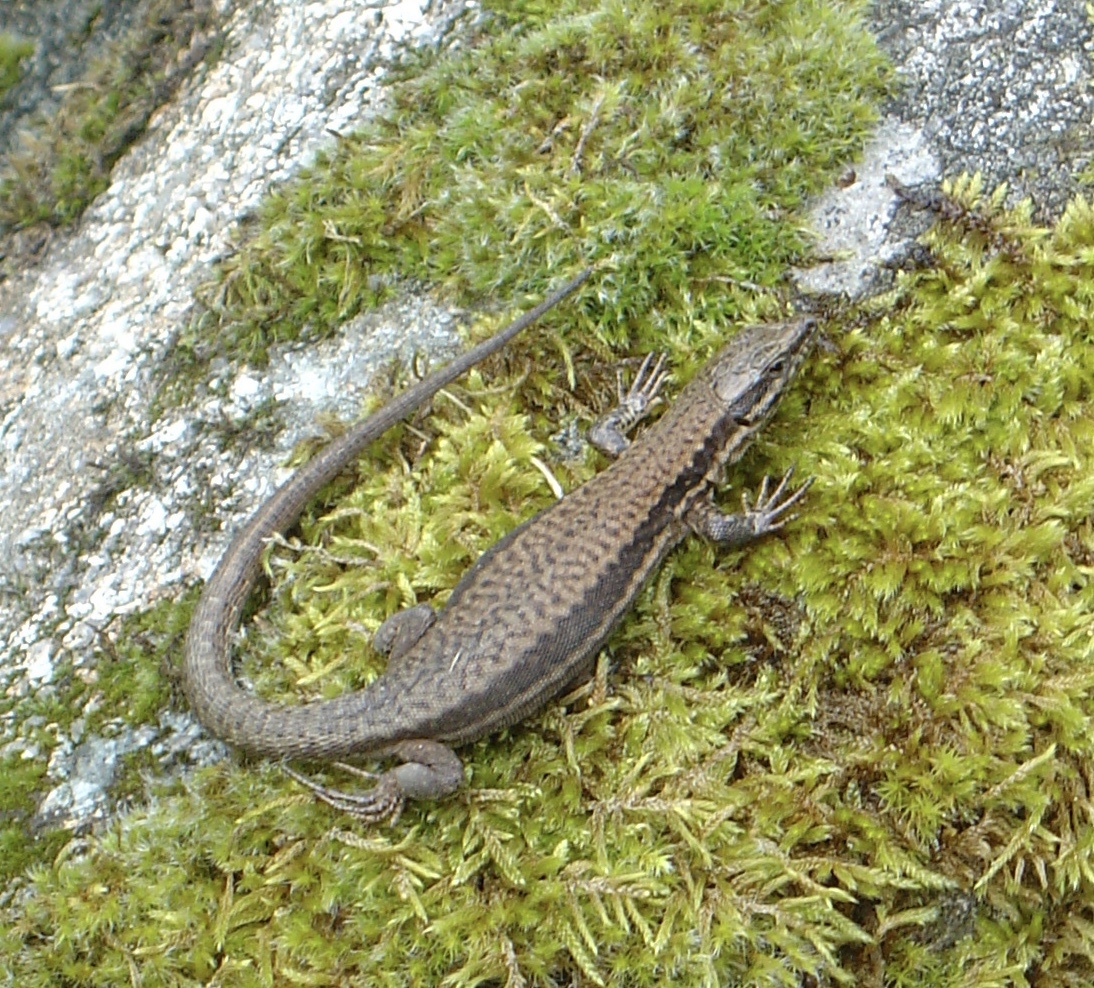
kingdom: Animalia
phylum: Chordata
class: Squamata
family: Lacertidae
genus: Podarcis
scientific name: Podarcis muralis
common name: Common wall lizard
